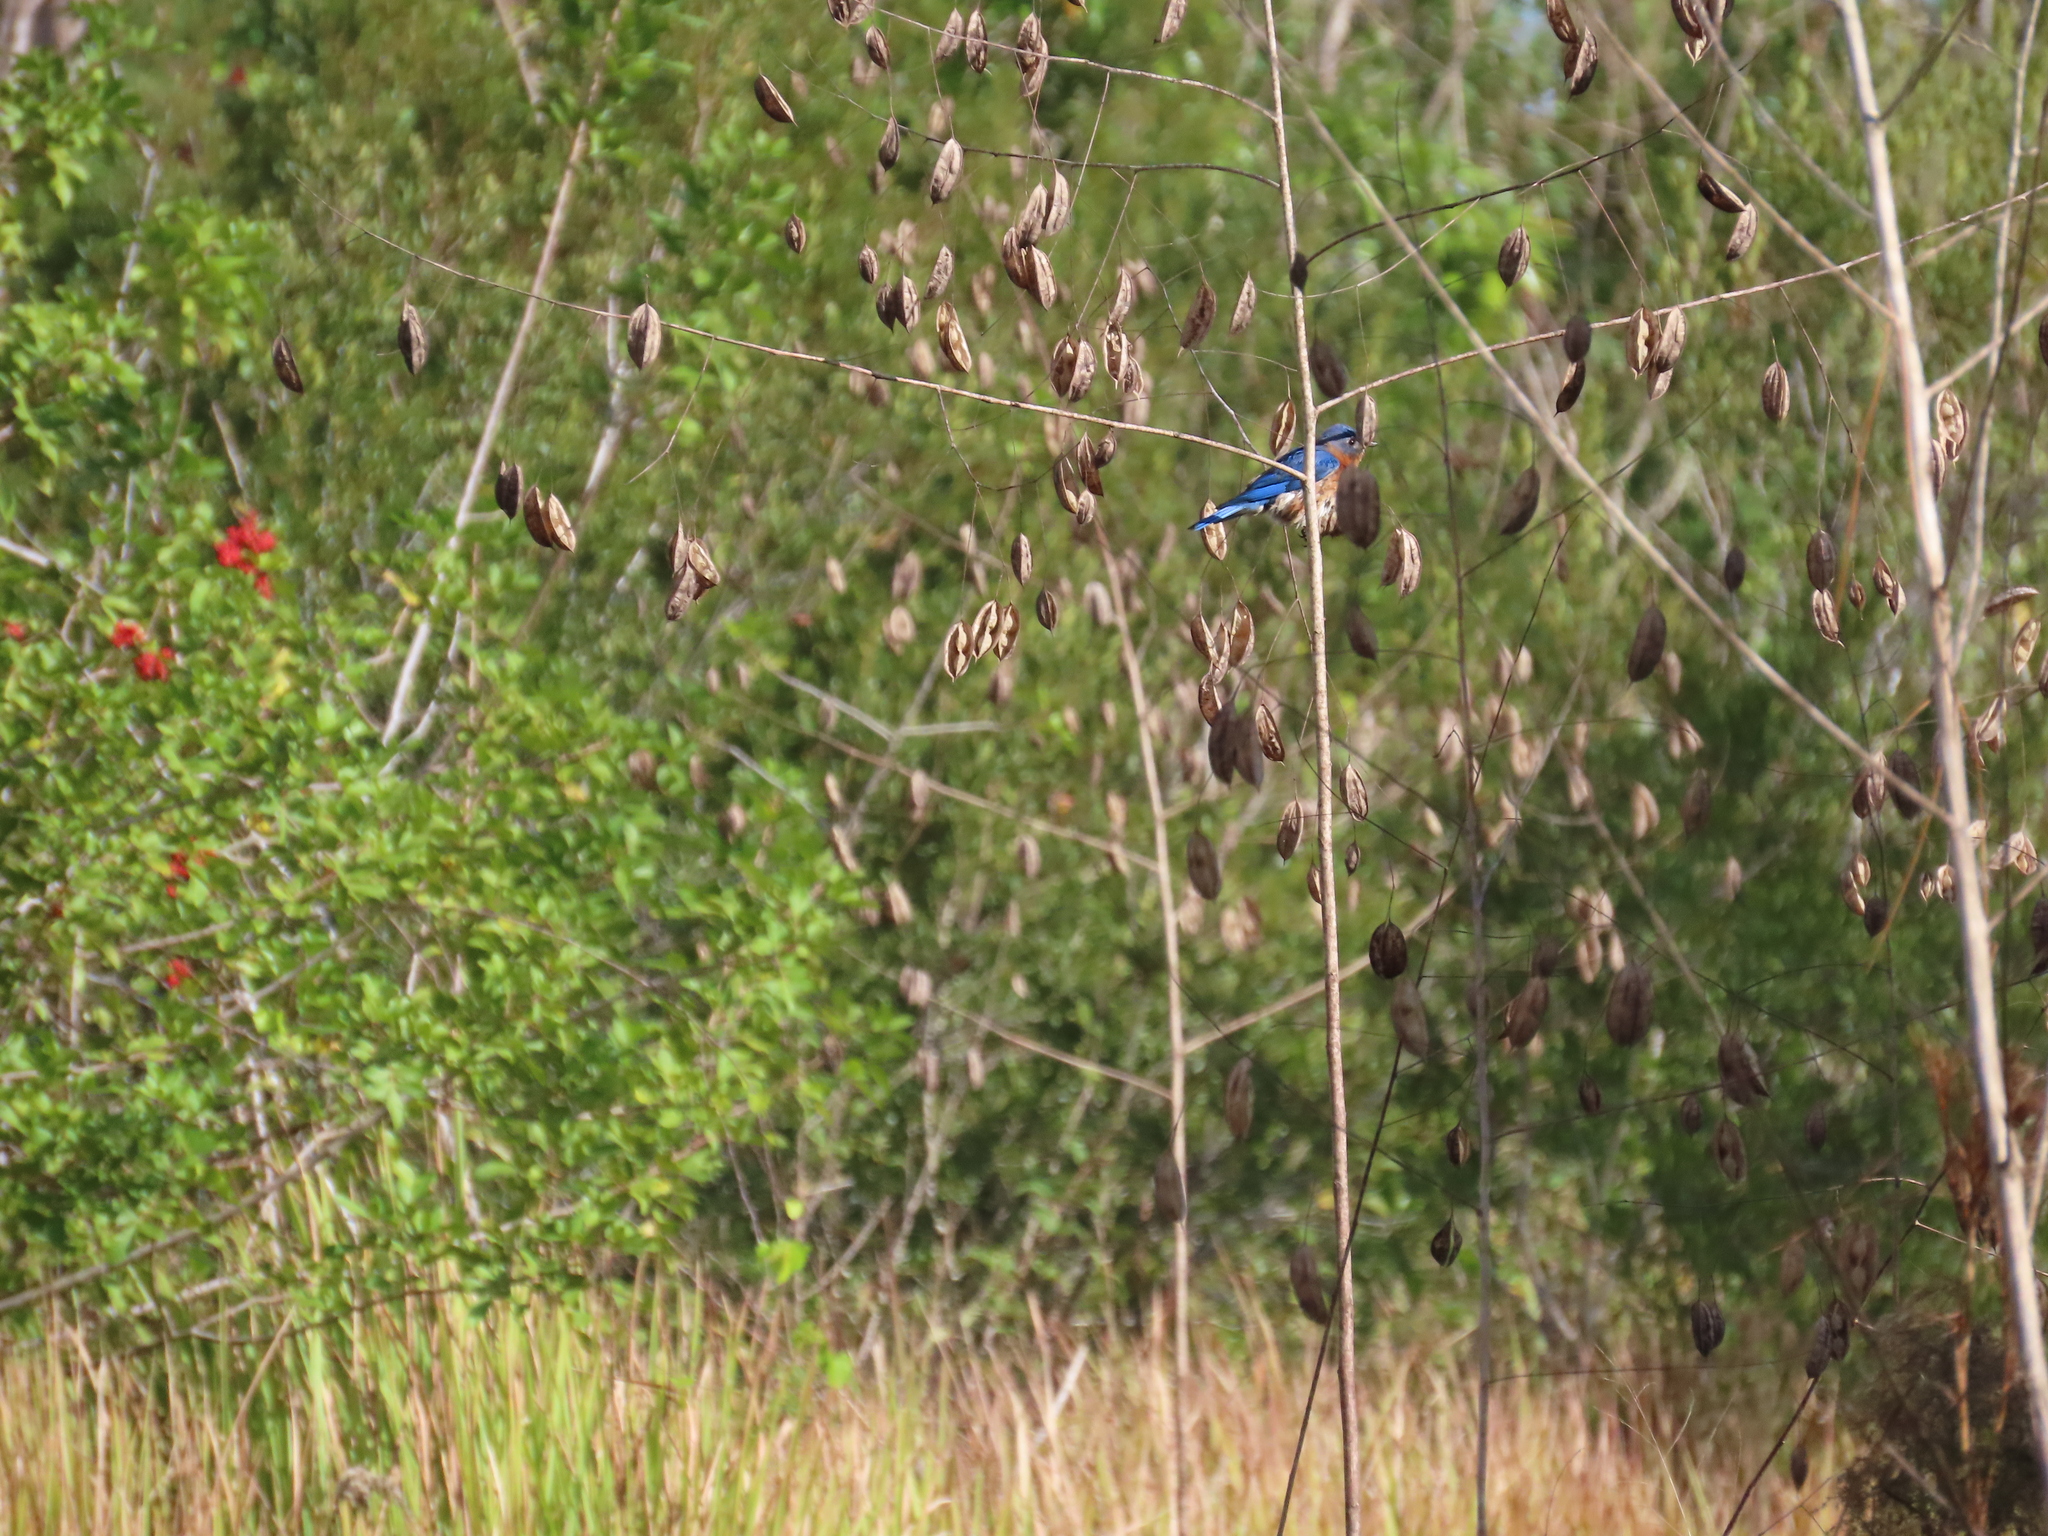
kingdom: Animalia
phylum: Chordata
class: Aves
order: Passeriformes
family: Turdidae
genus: Sialia
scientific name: Sialia sialis
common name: Eastern bluebird
